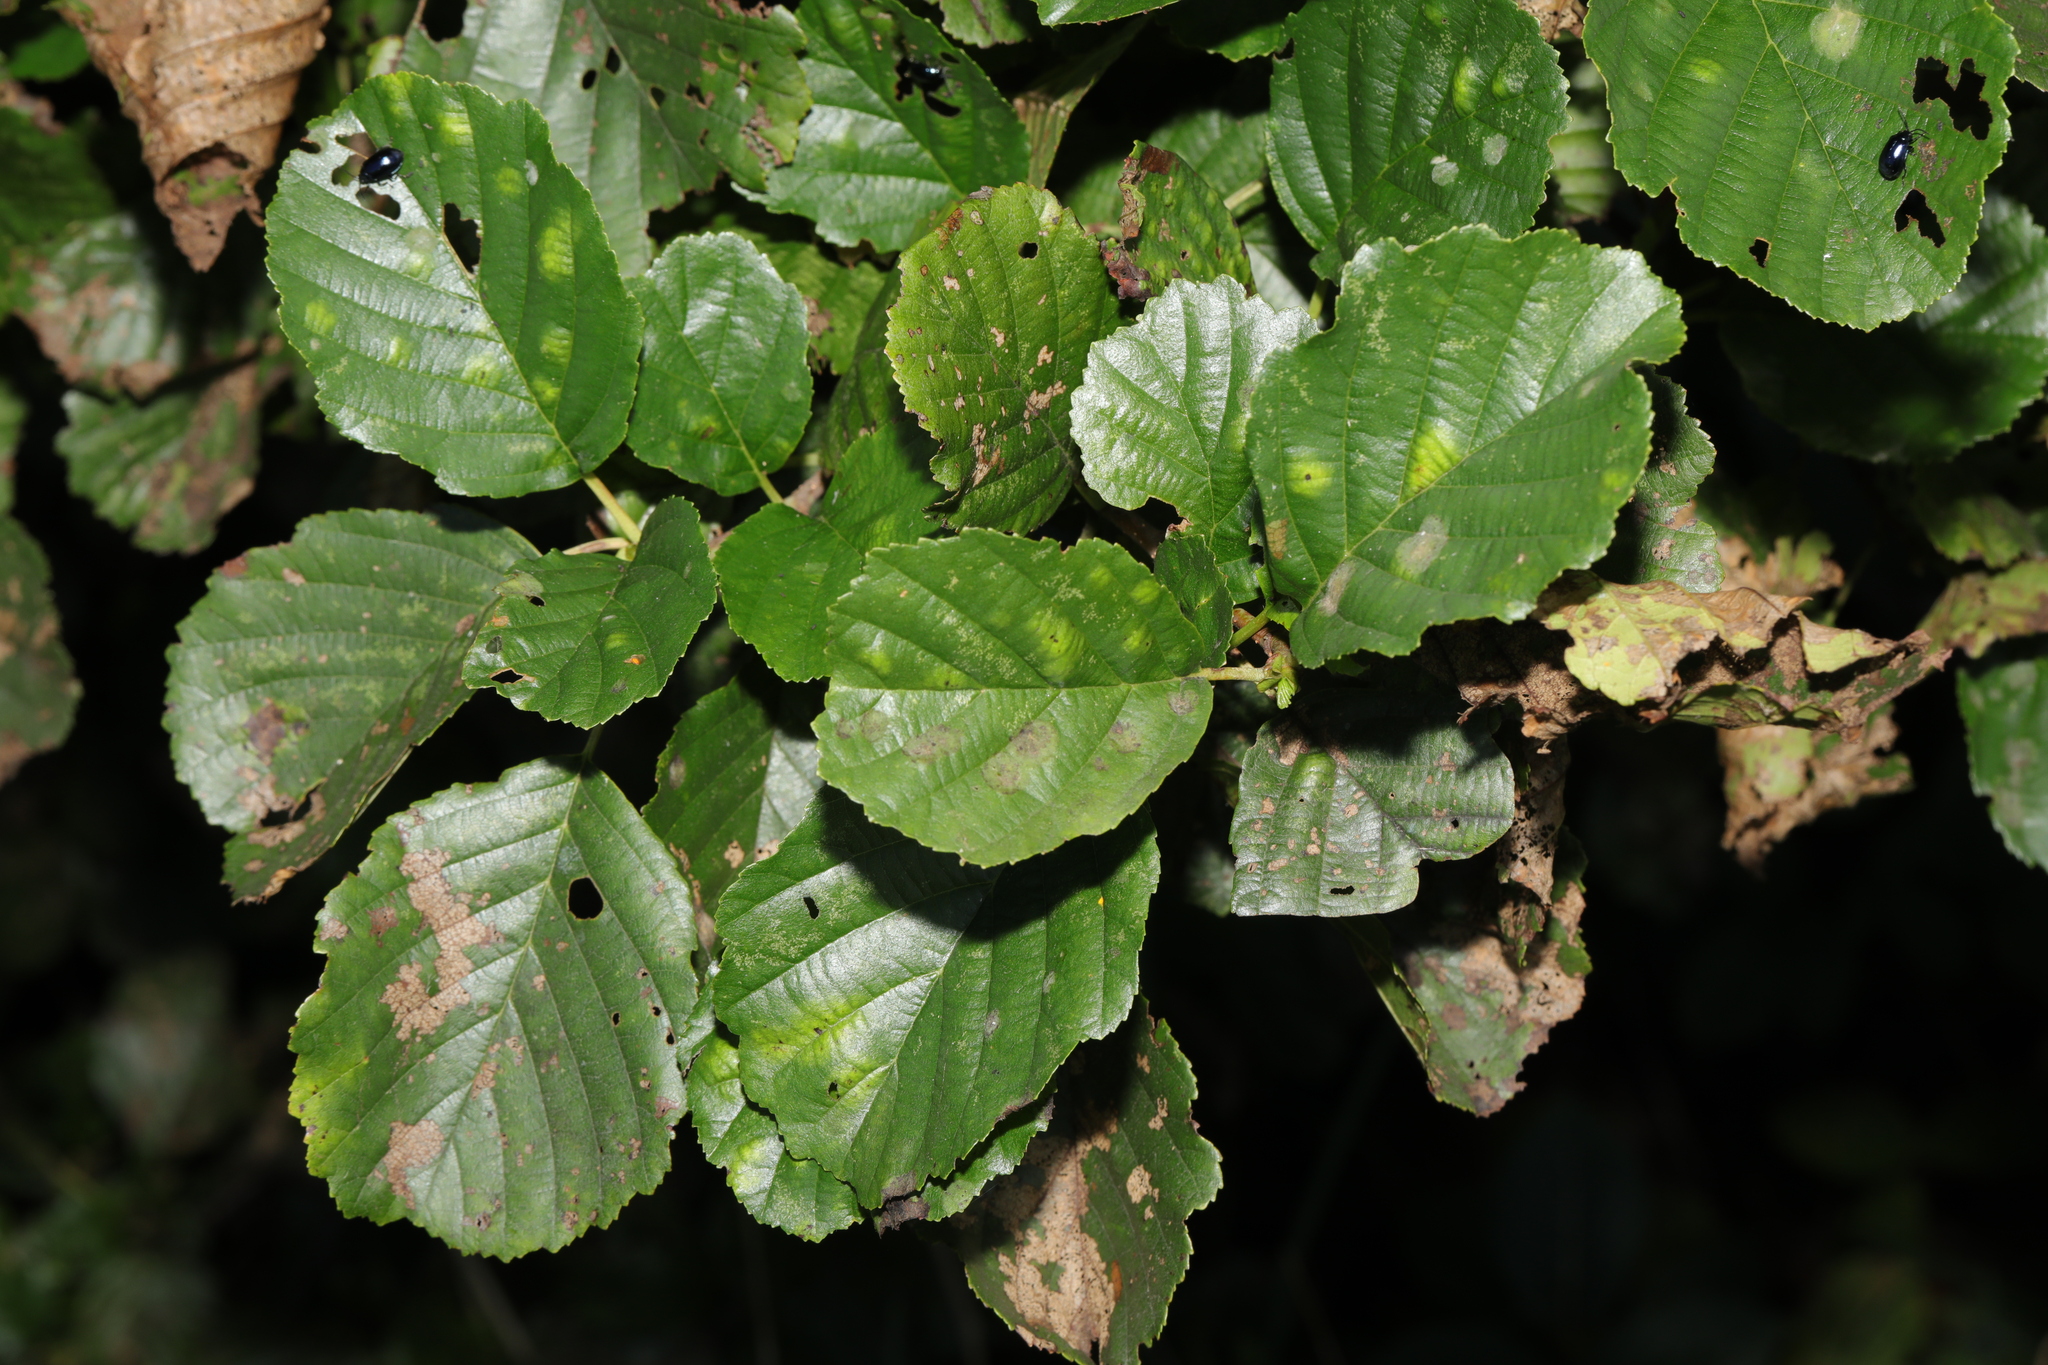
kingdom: Plantae
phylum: Tracheophyta
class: Magnoliopsida
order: Fagales
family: Betulaceae
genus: Alnus
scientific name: Alnus glutinosa
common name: Black alder
